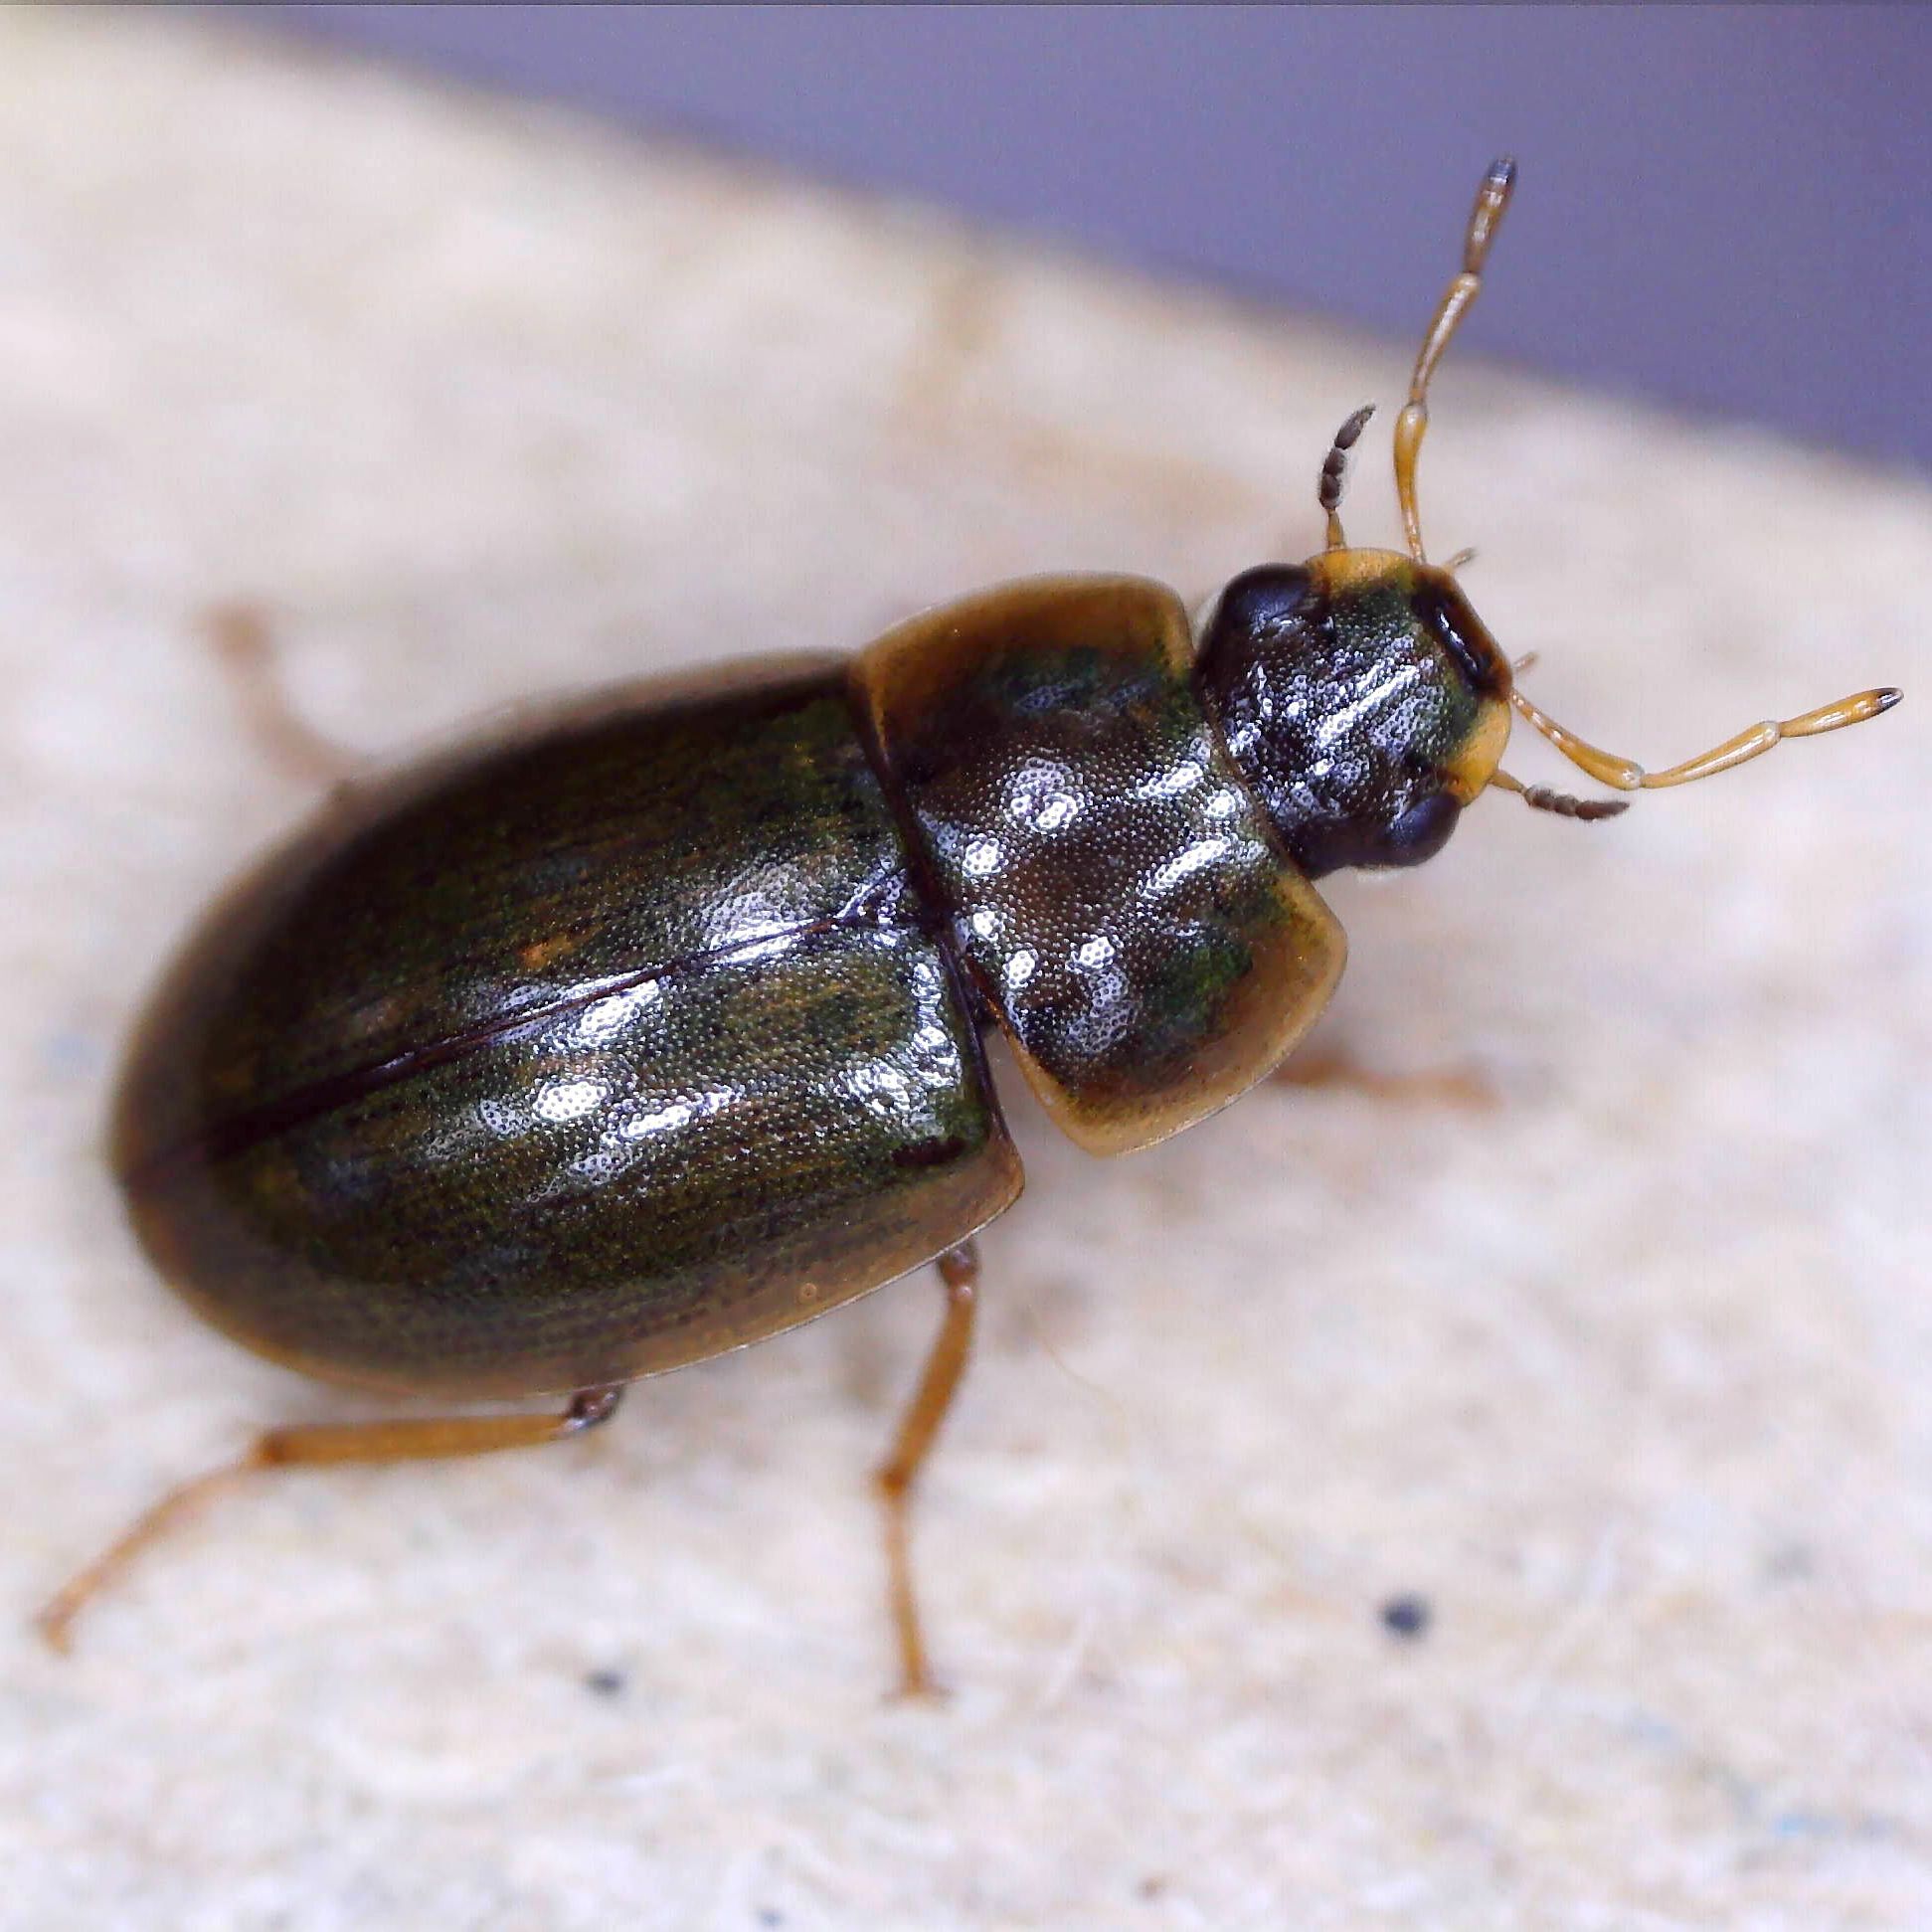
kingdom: Animalia
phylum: Arthropoda
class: Insecta
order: Coleoptera
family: Hydrophilidae
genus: Helochares
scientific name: Helochares punctatus
